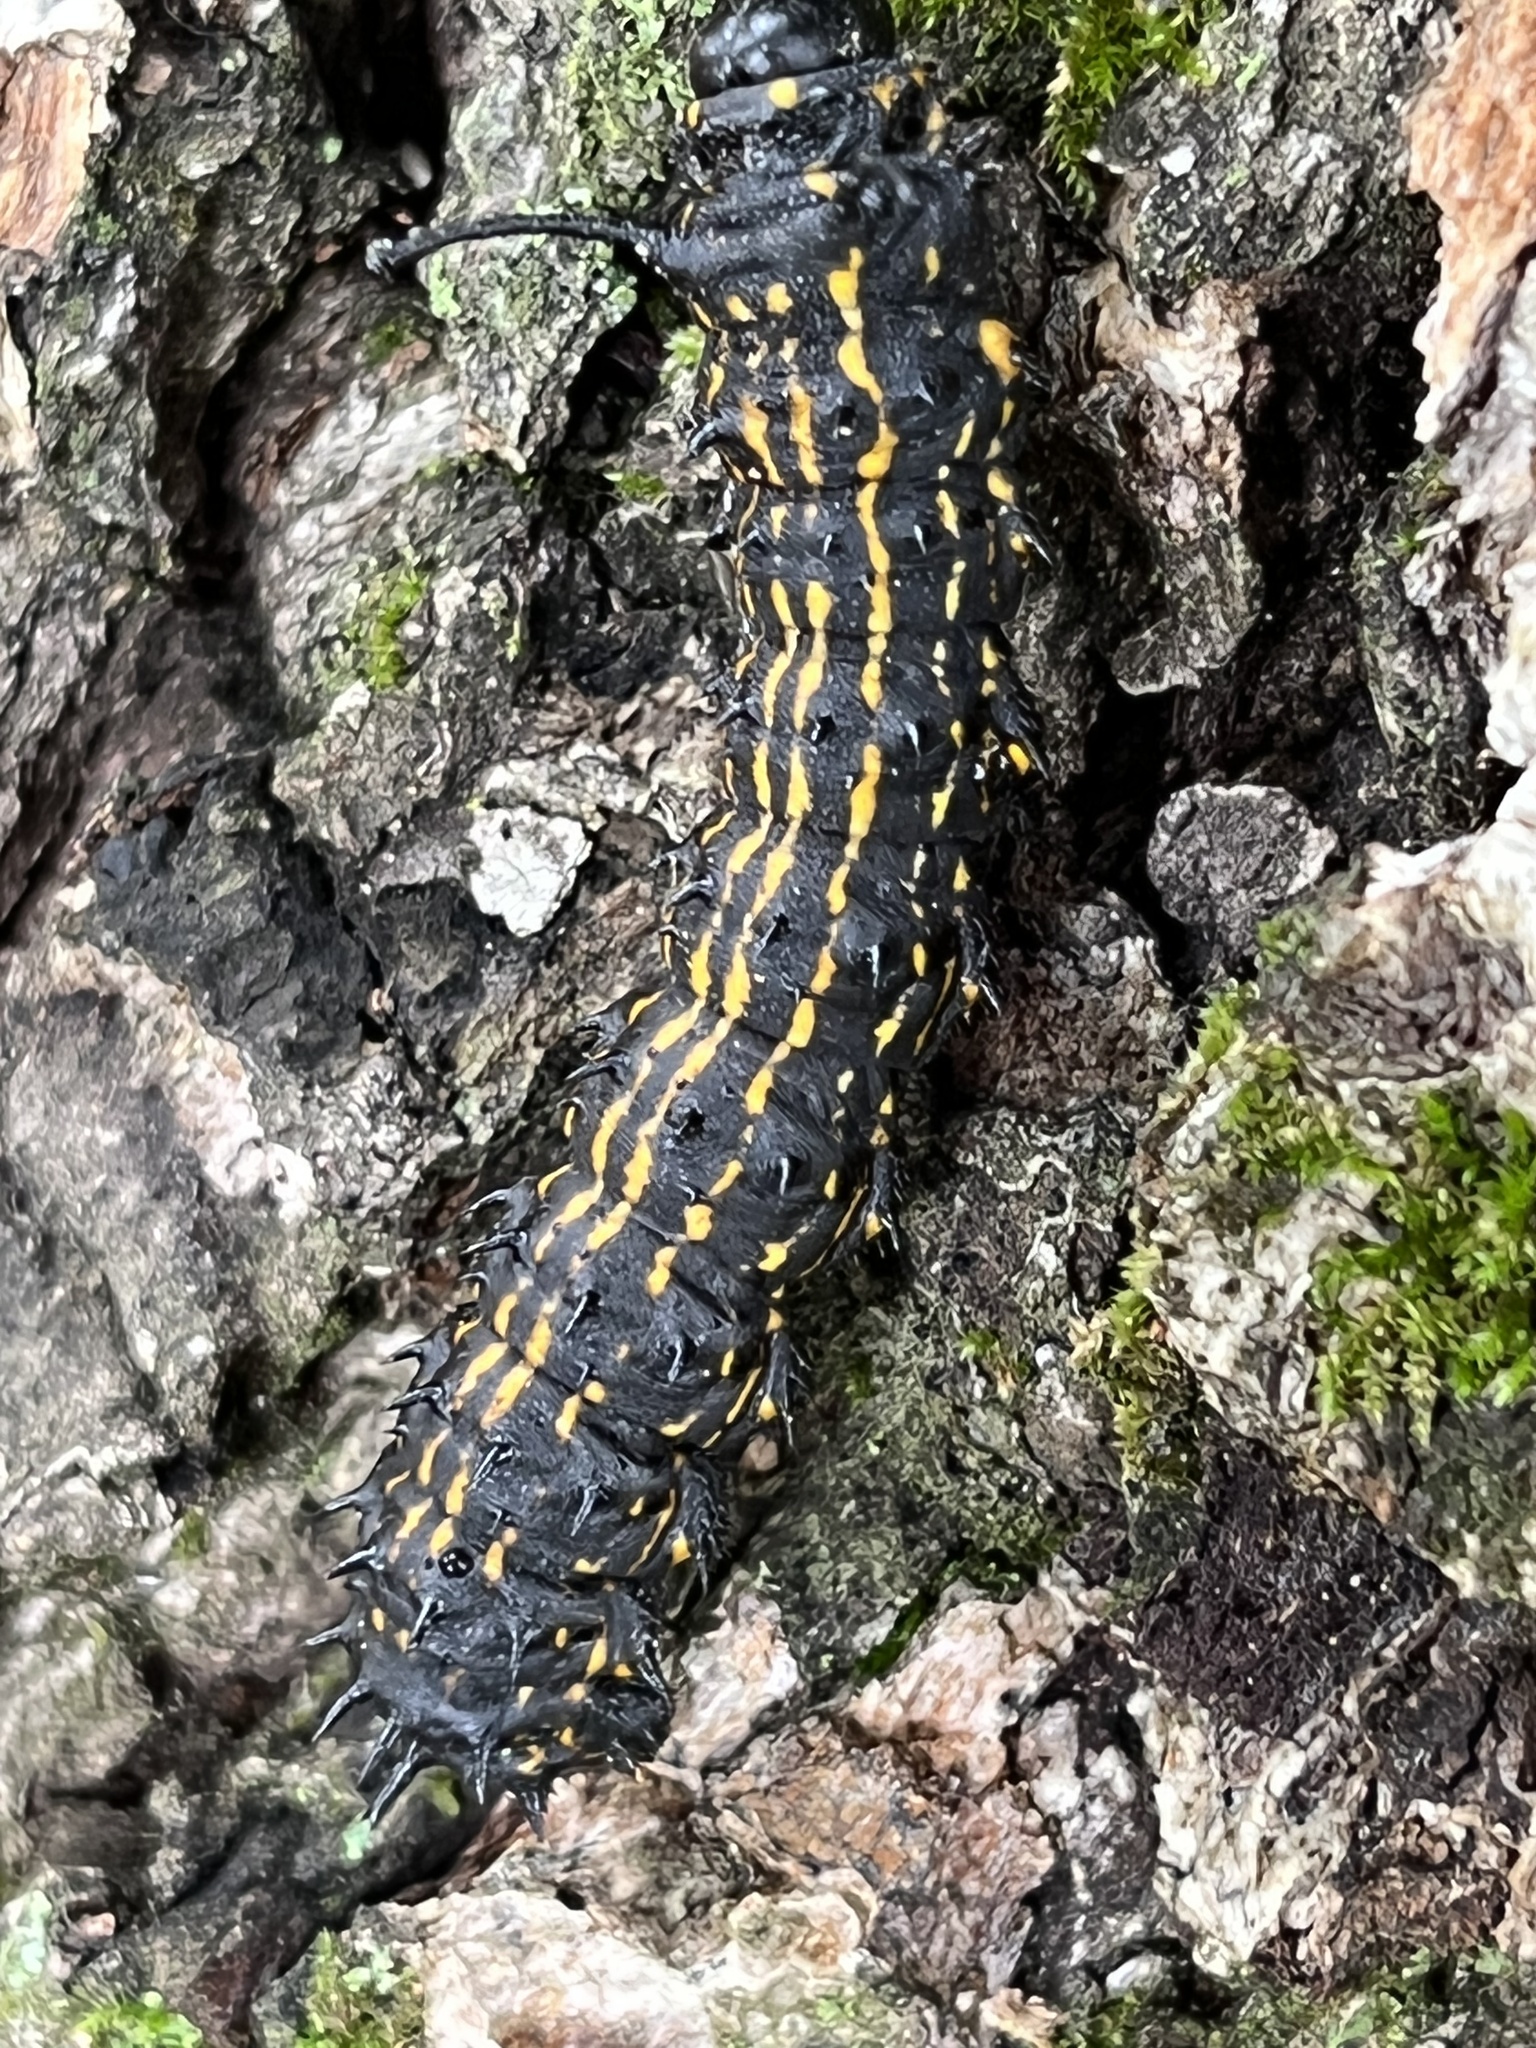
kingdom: Animalia
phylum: Arthropoda
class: Insecta
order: Lepidoptera
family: Saturniidae
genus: Anisota
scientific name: Anisota peigleri
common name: Peigler's oakworm moth
